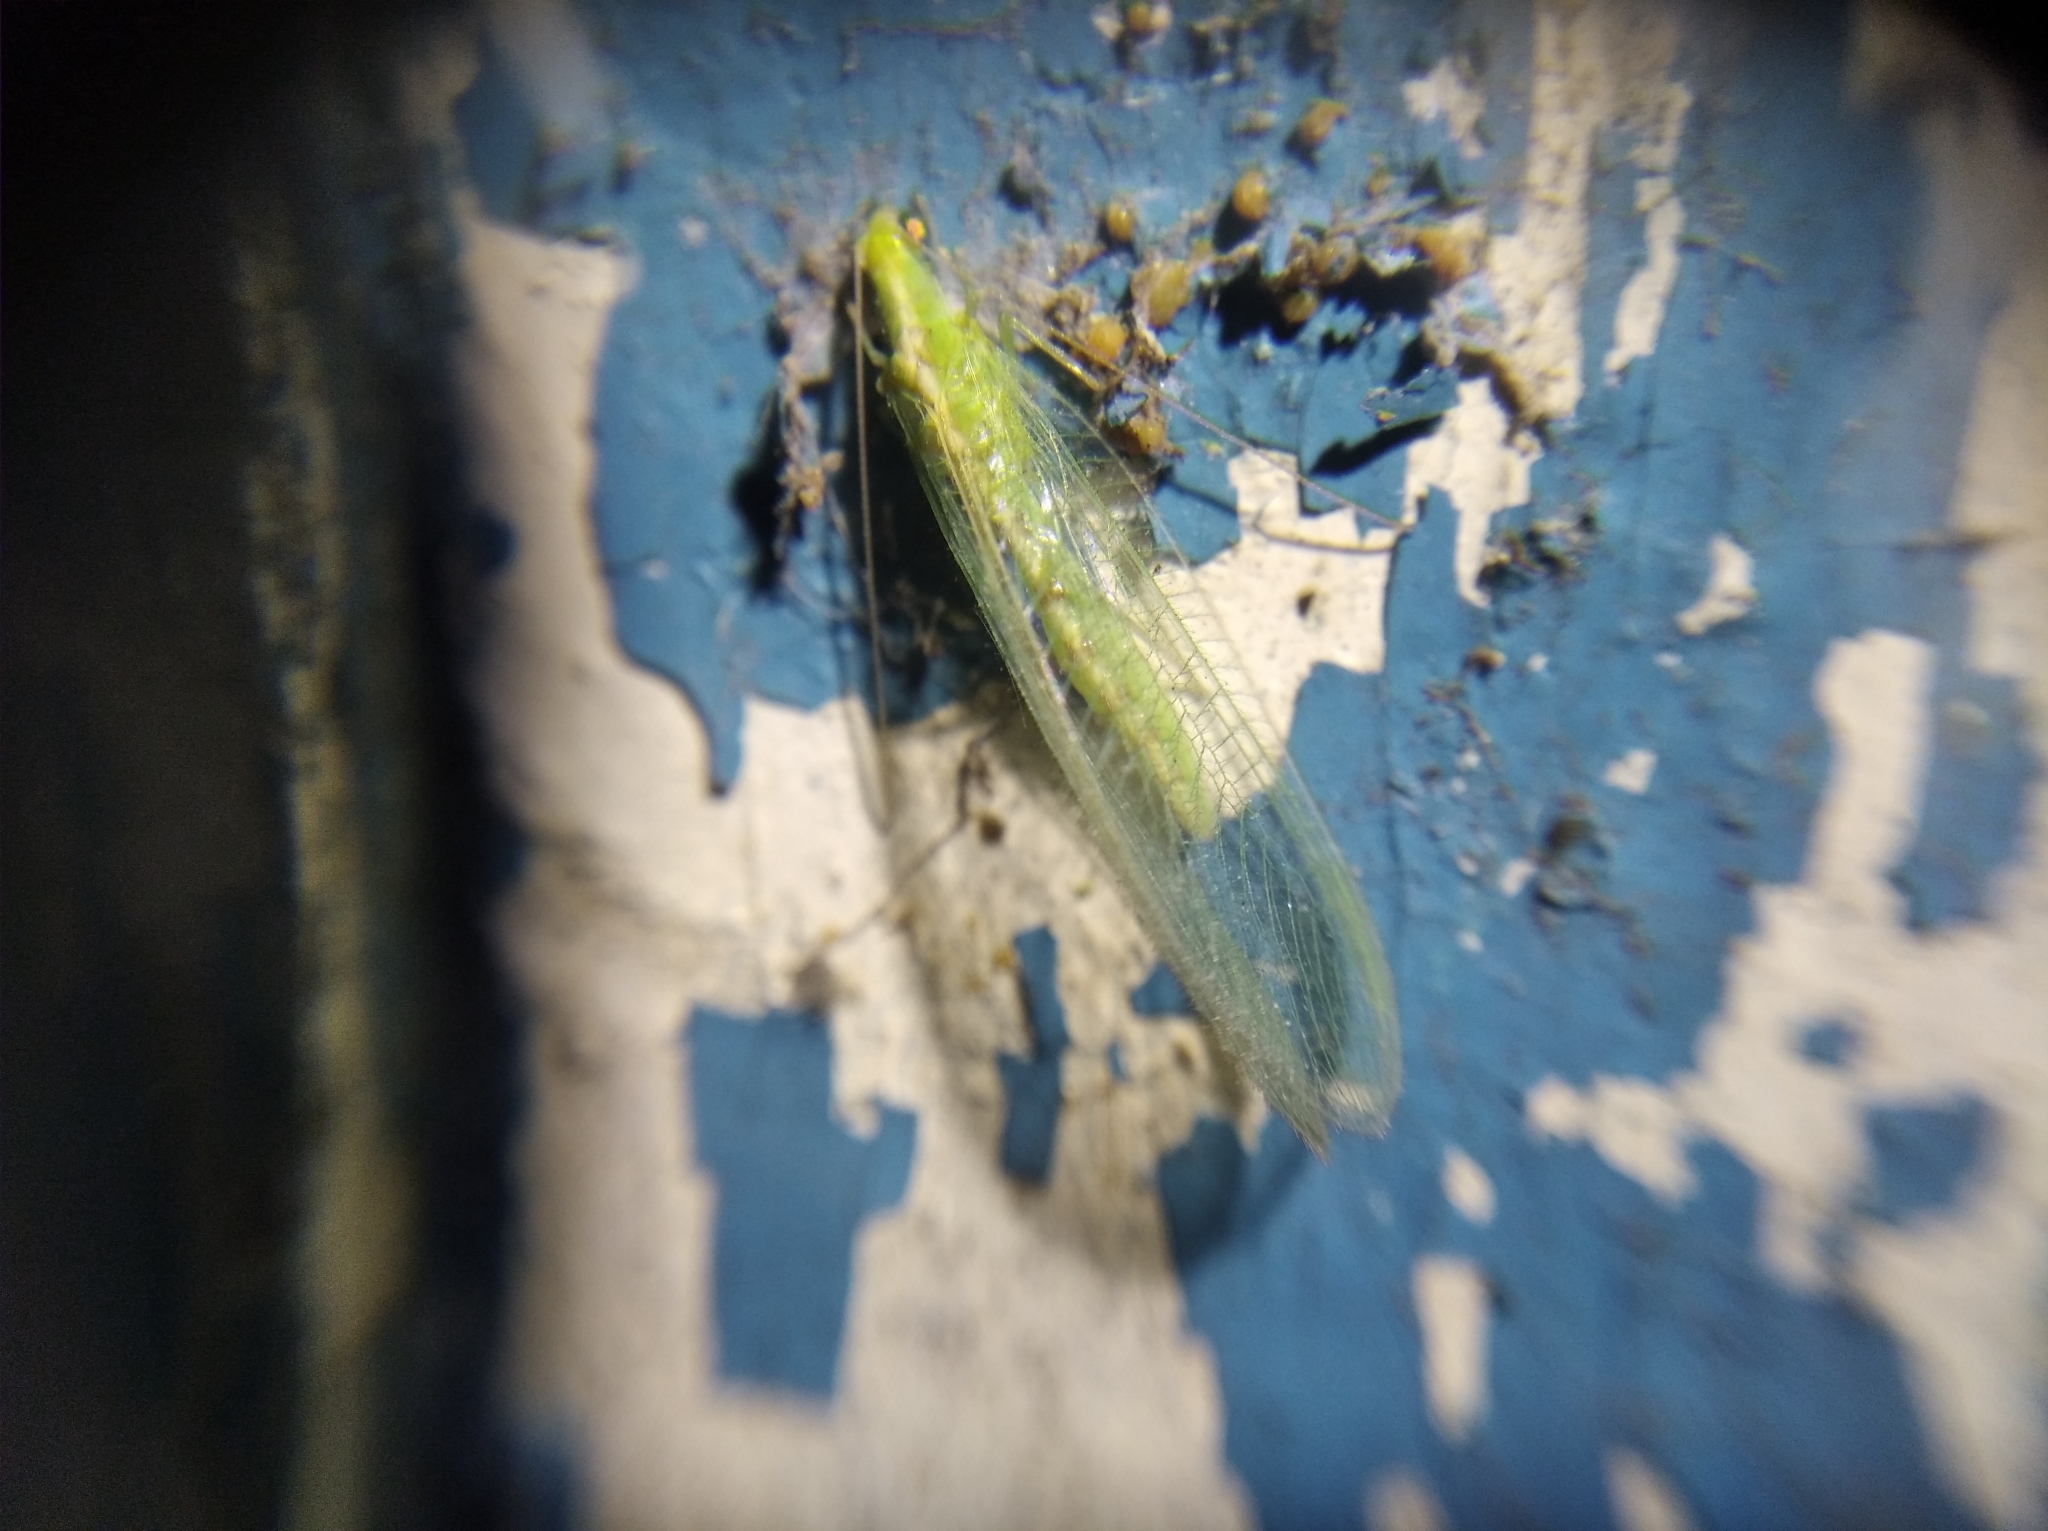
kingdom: Animalia
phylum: Arthropoda
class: Insecta
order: Neuroptera
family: Chrysopidae
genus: Chrysoperla
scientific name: Chrysoperla
